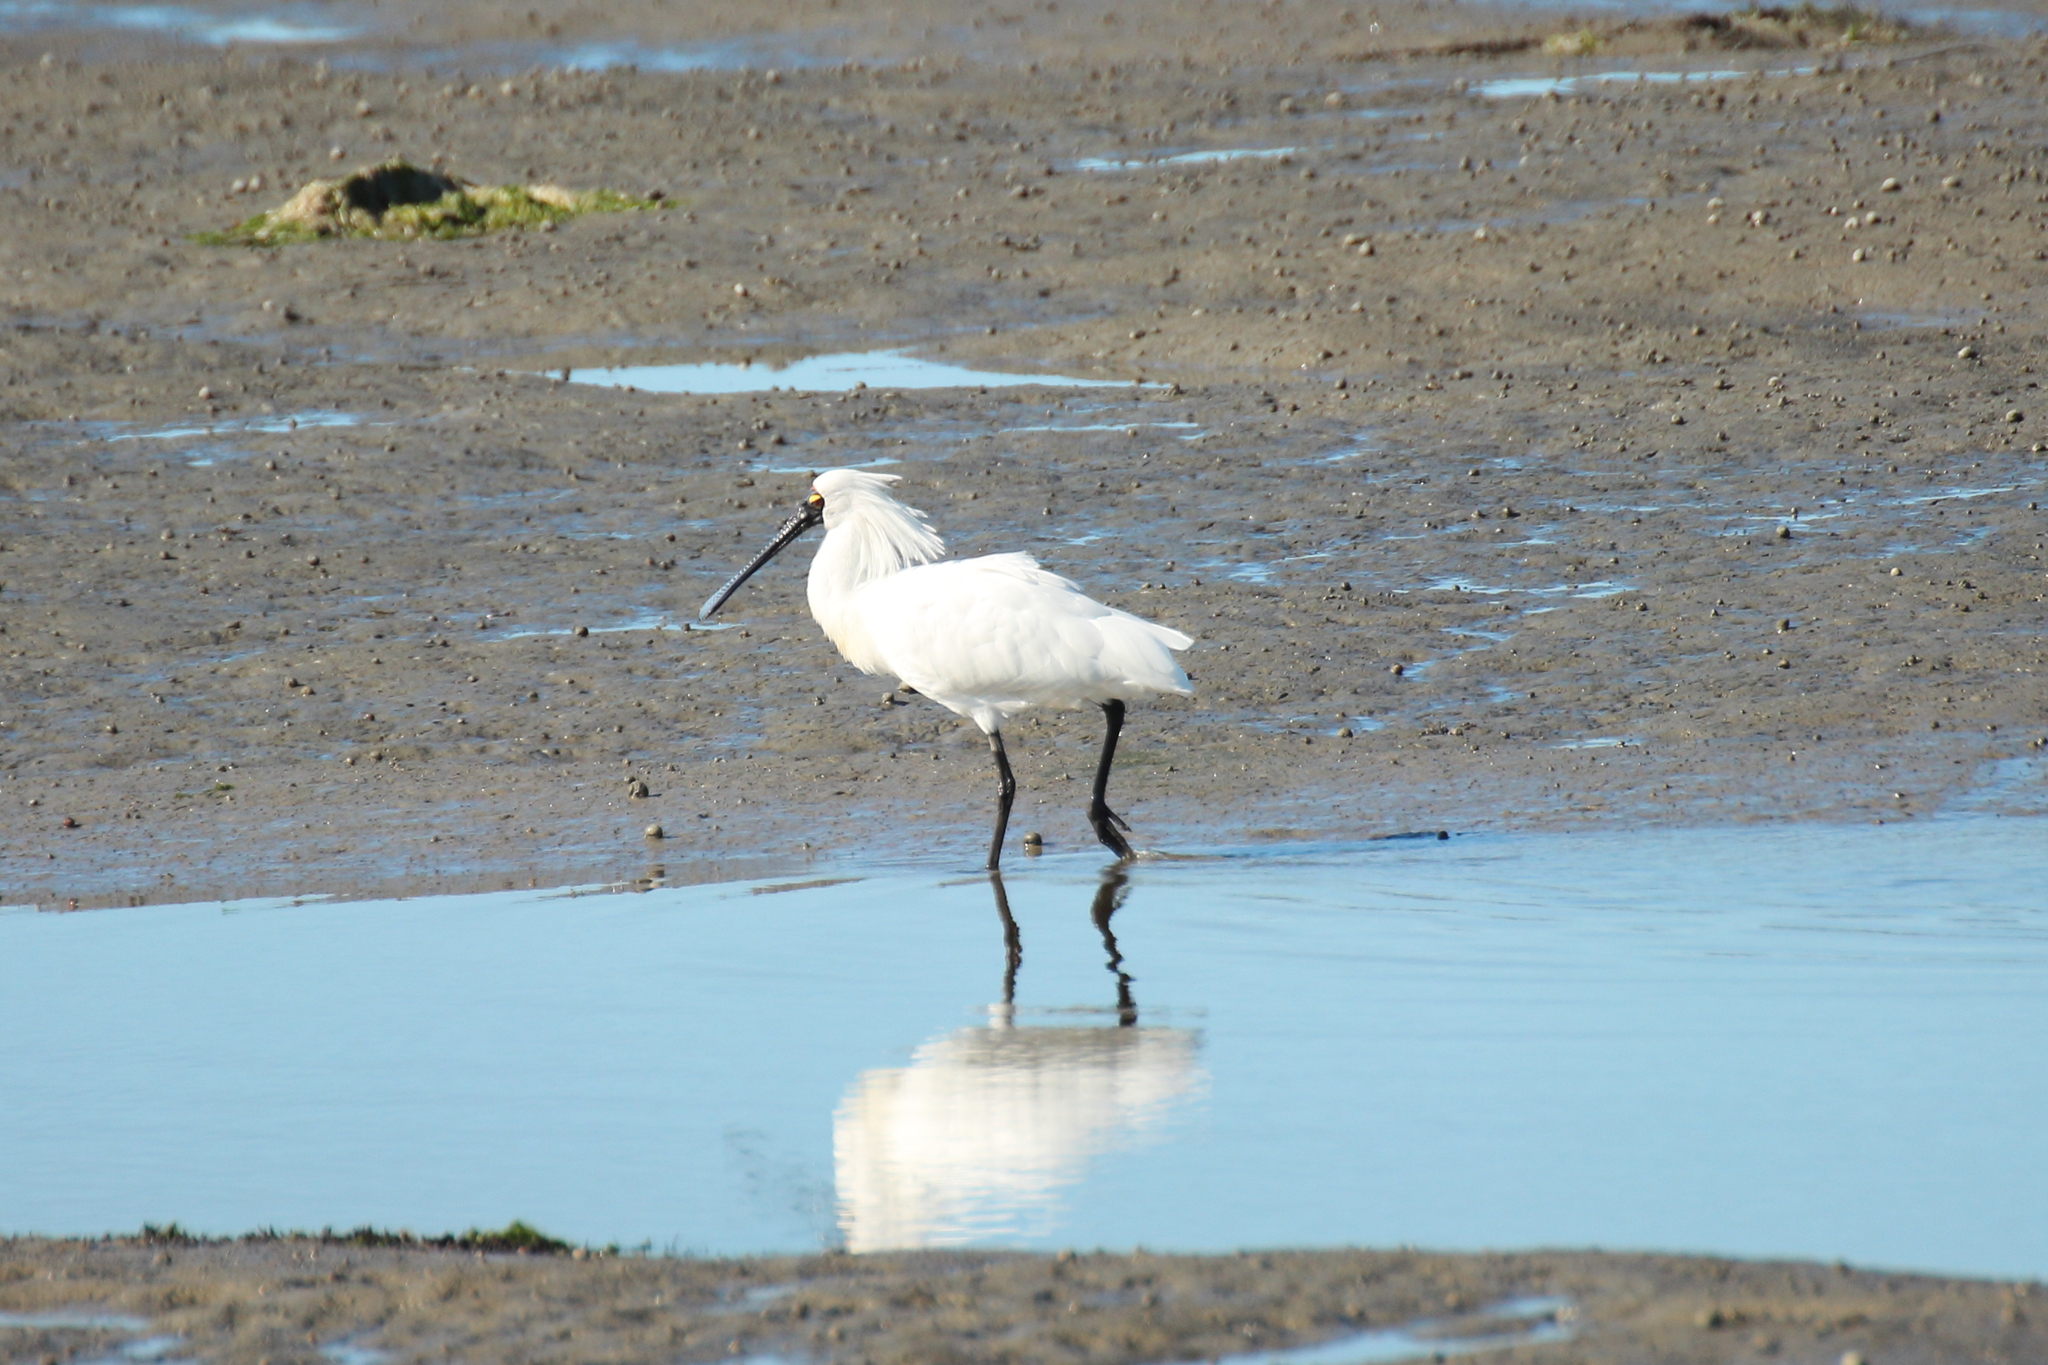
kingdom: Animalia
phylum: Chordata
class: Aves
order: Pelecaniformes
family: Threskiornithidae
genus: Platalea
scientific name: Platalea regia
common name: Royal spoonbill
